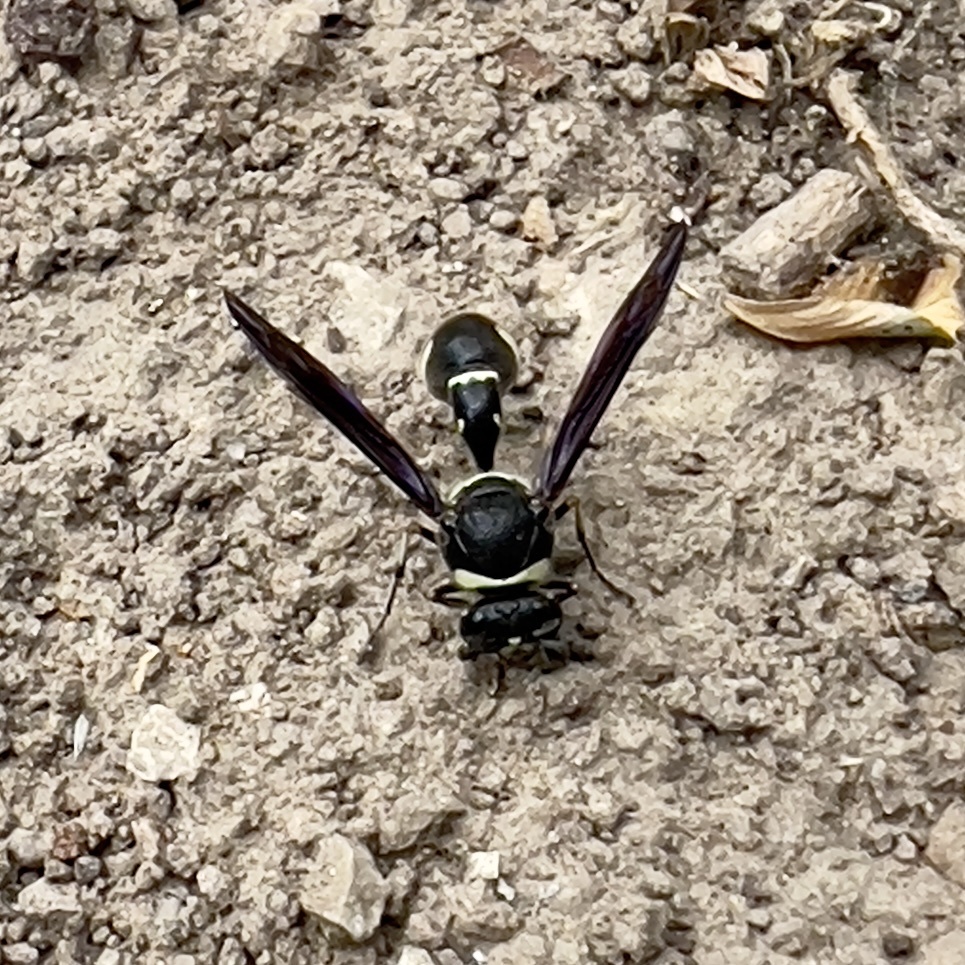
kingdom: Animalia
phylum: Arthropoda
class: Insecta
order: Hymenoptera
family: Vespidae
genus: Eumenes
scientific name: Eumenes fraternus
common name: Fraternal potter wasp
